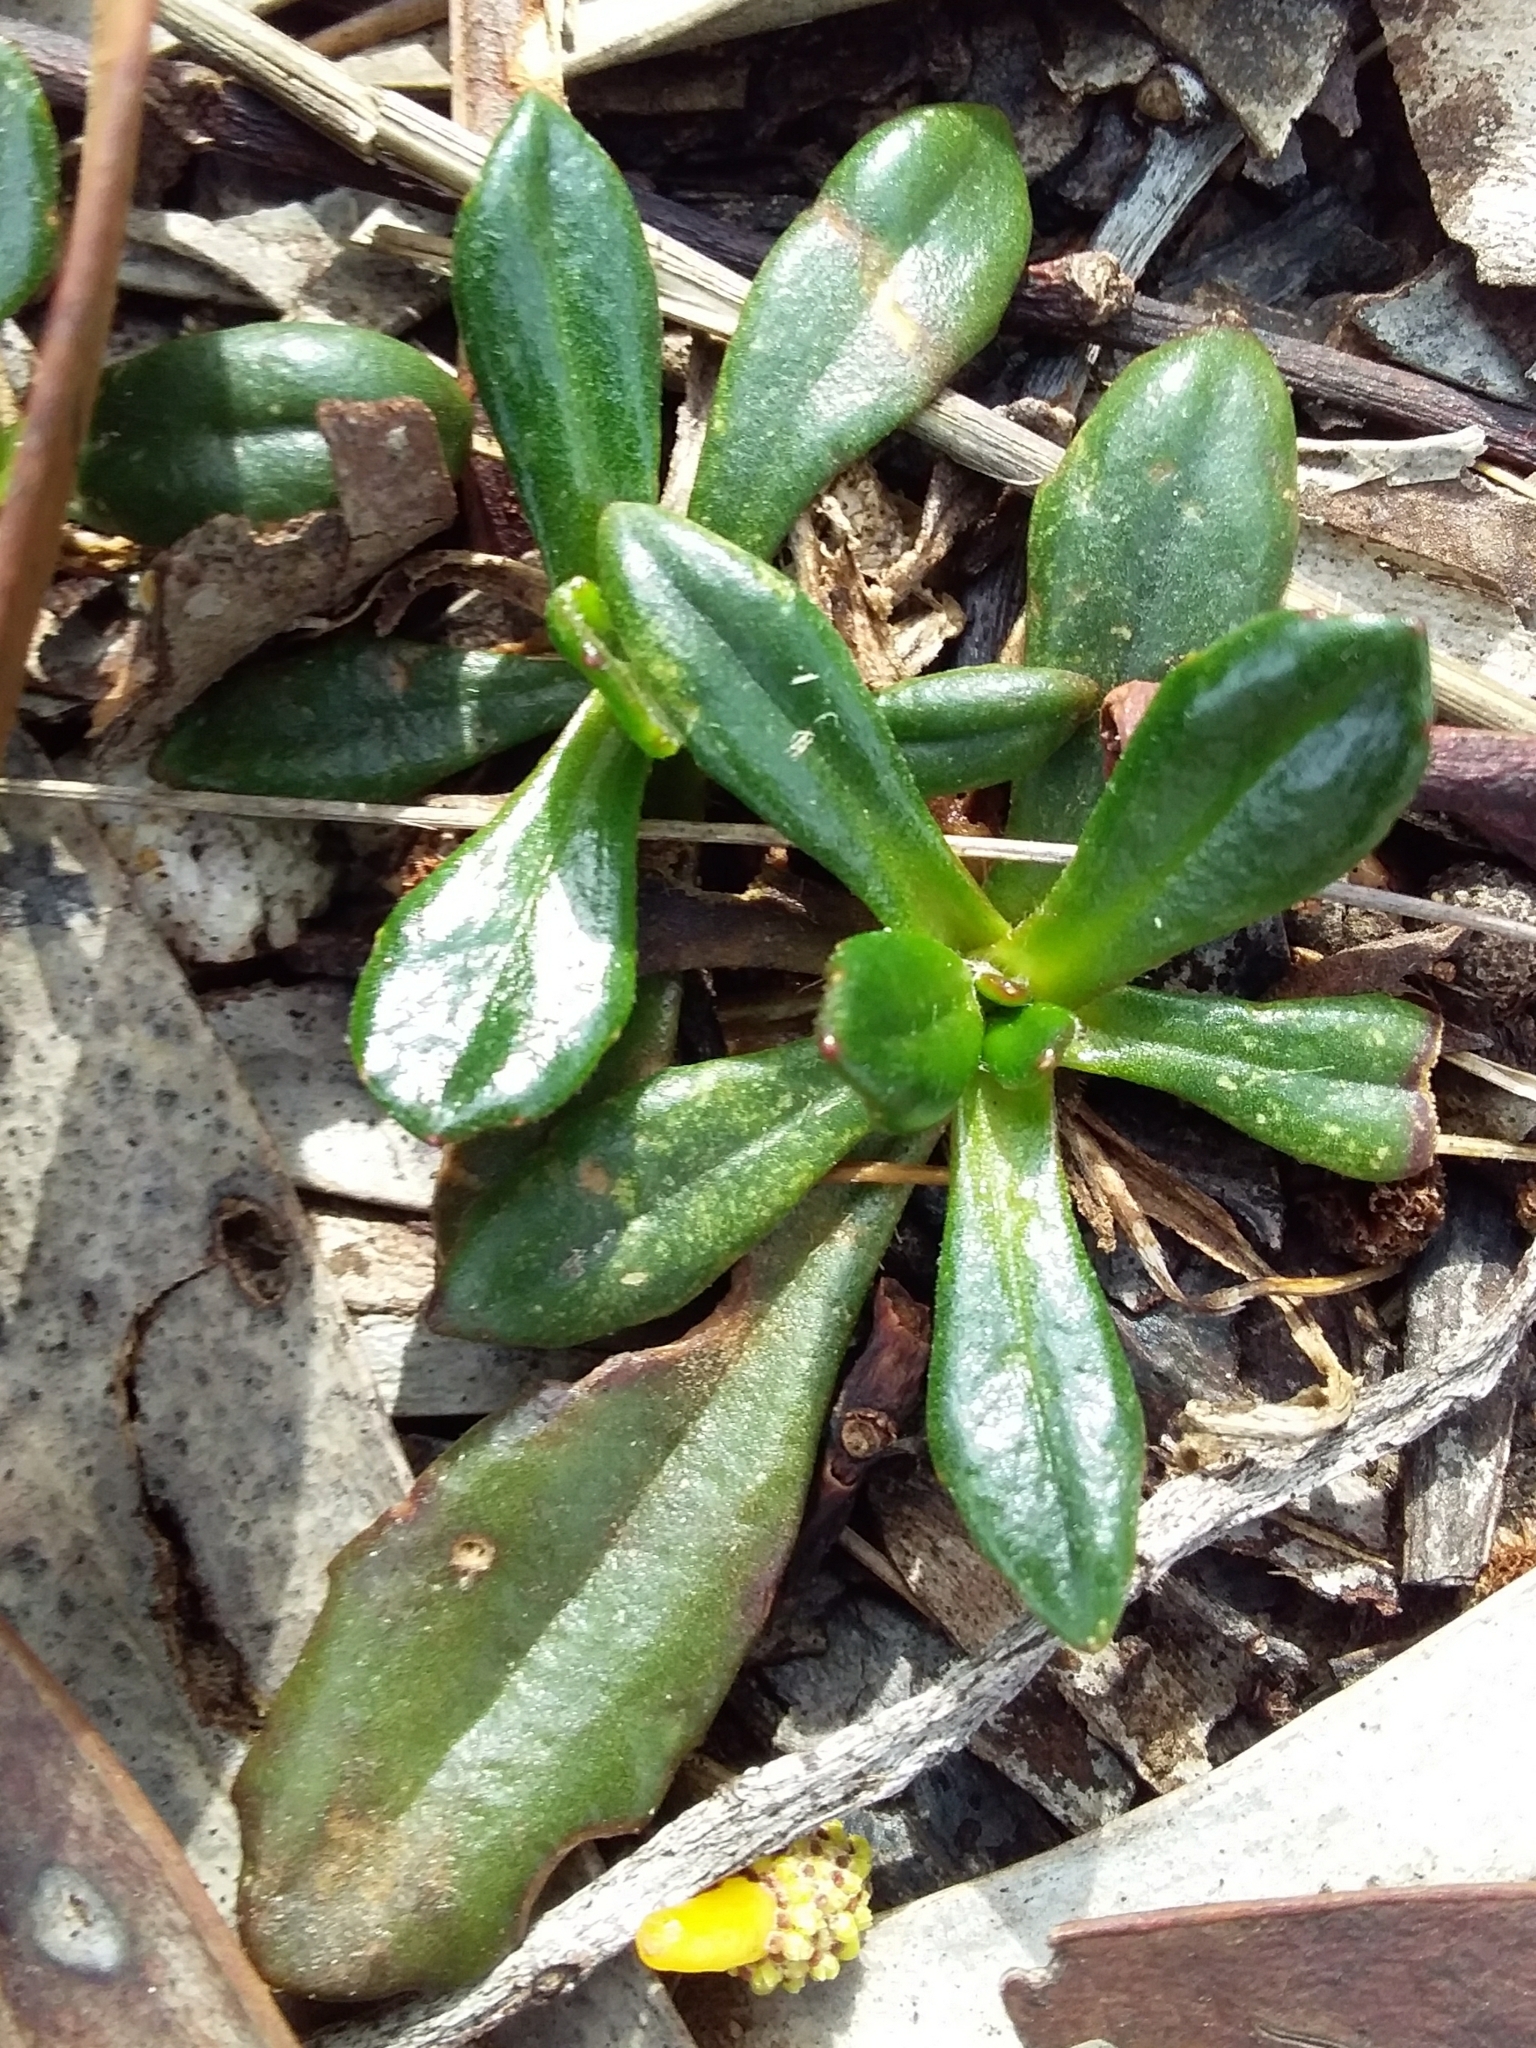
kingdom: Plantae
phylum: Tracheophyta
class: Magnoliopsida
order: Asterales
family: Goodeniaceae
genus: Goodenia
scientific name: Goodenia blackiana
